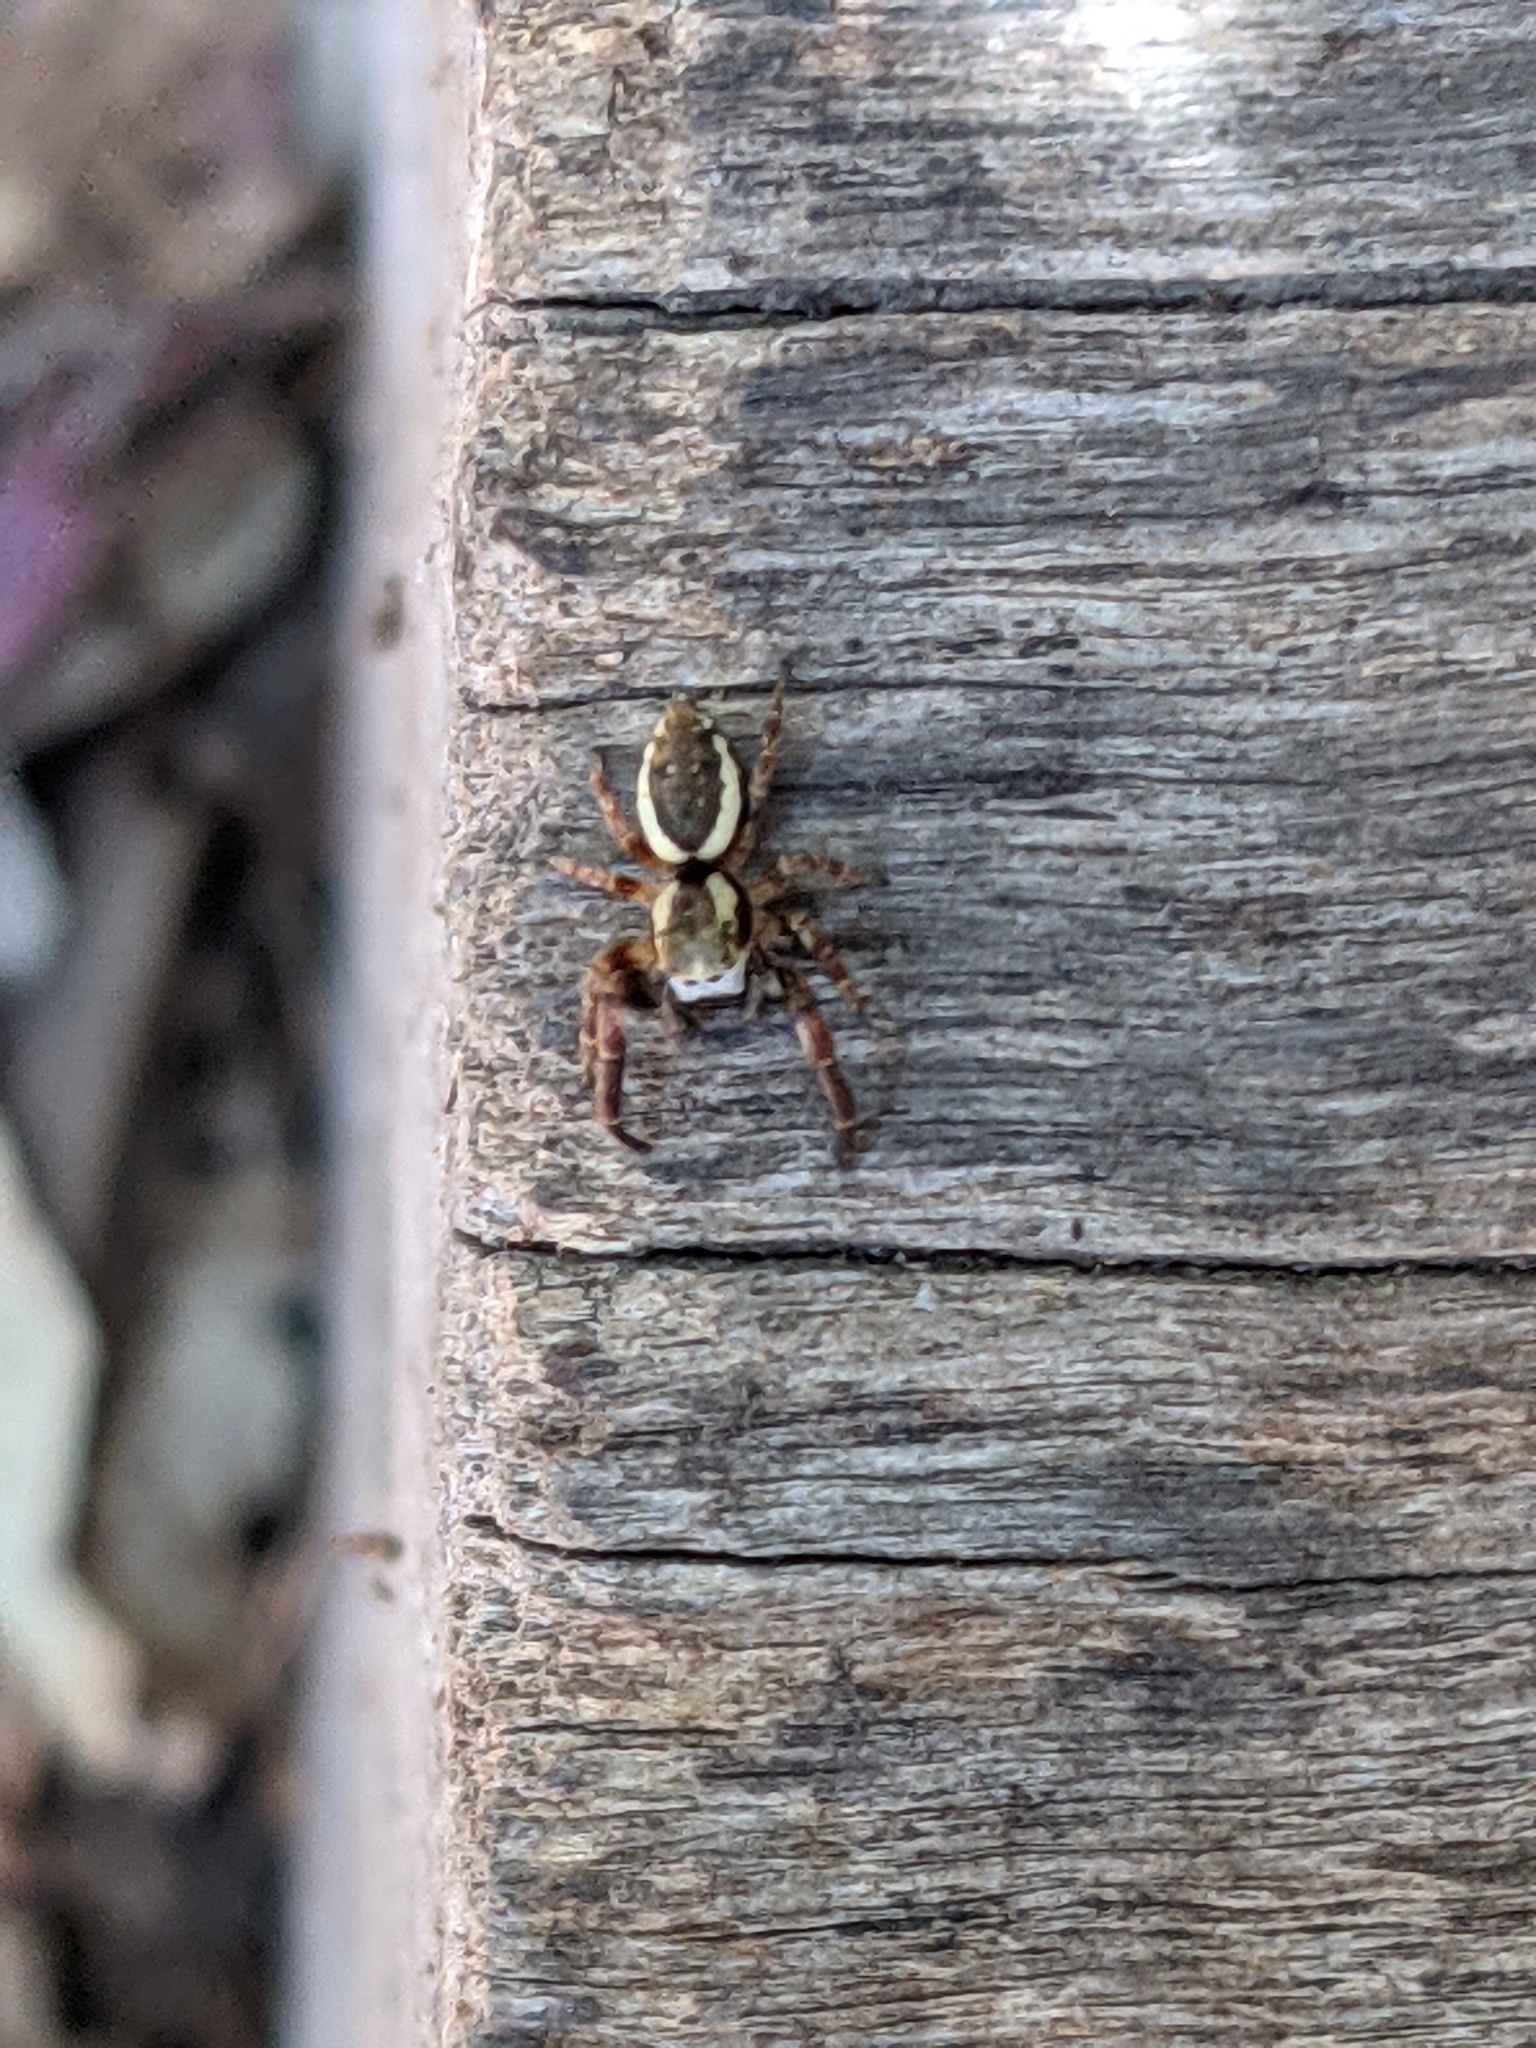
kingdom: Animalia
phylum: Arthropoda
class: Arachnida
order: Araneae
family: Salticidae
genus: Phanias
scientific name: Phanias albeolus
